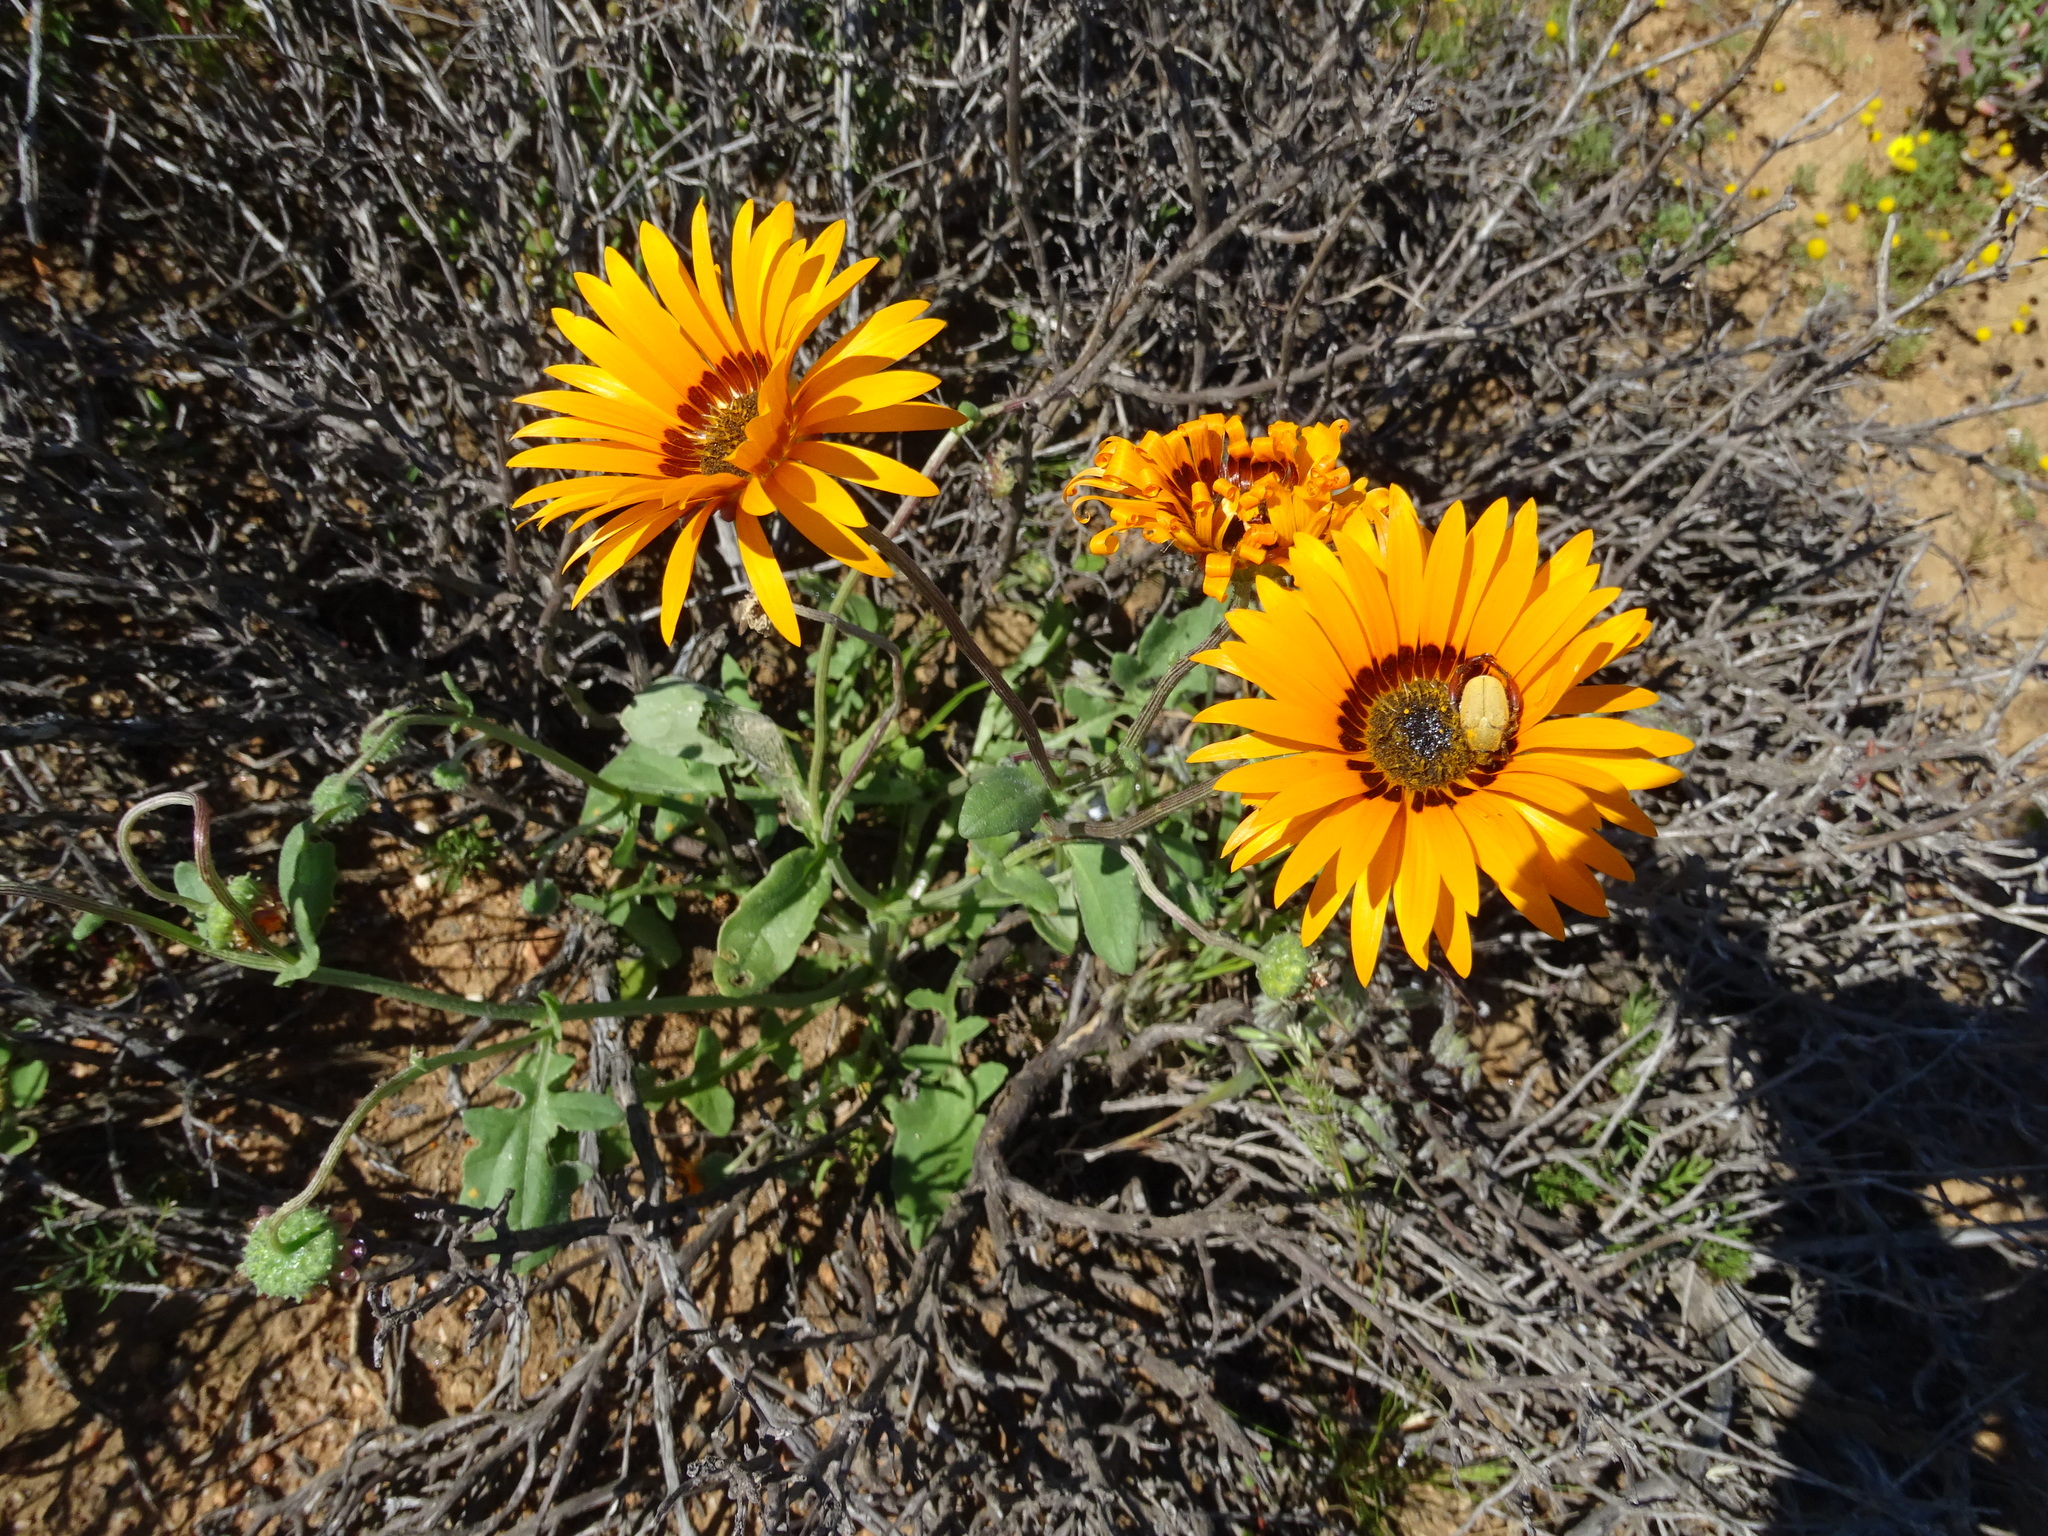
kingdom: Plantae
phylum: Tracheophyta
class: Magnoliopsida
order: Asterales
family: Asteraceae
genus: Arctotis
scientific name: Arctotis hirsuta
